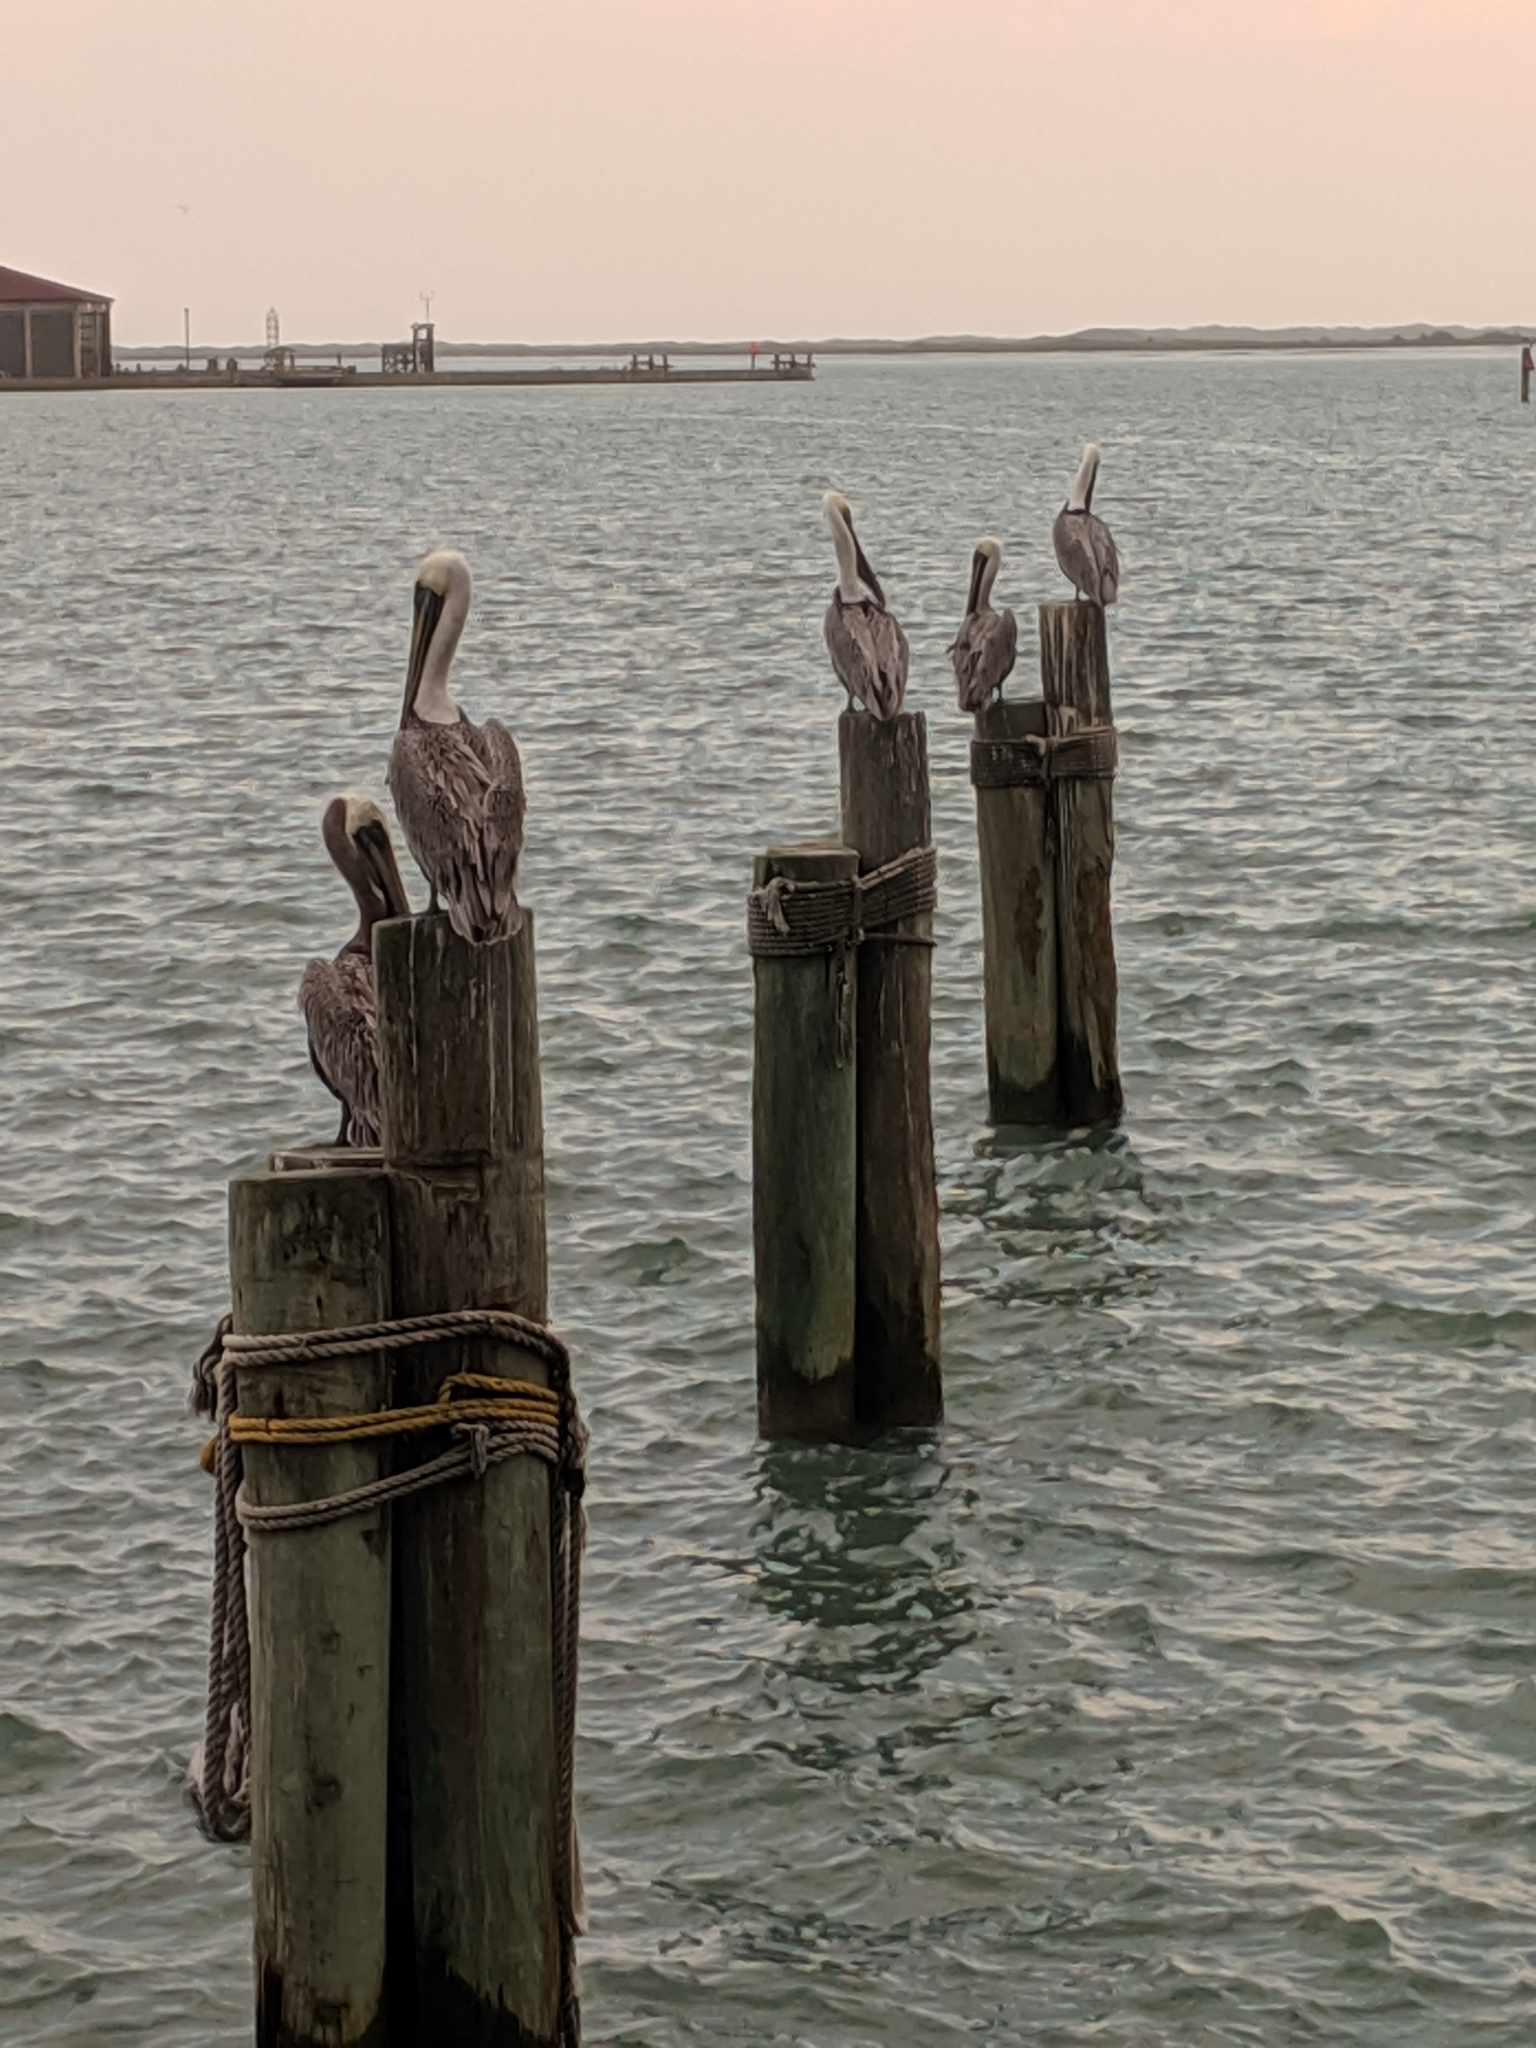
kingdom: Animalia
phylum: Chordata
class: Aves
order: Pelecaniformes
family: Pelecanidae
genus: Pelecanus
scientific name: Pelecanus occidentalis
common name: Brown pelican
